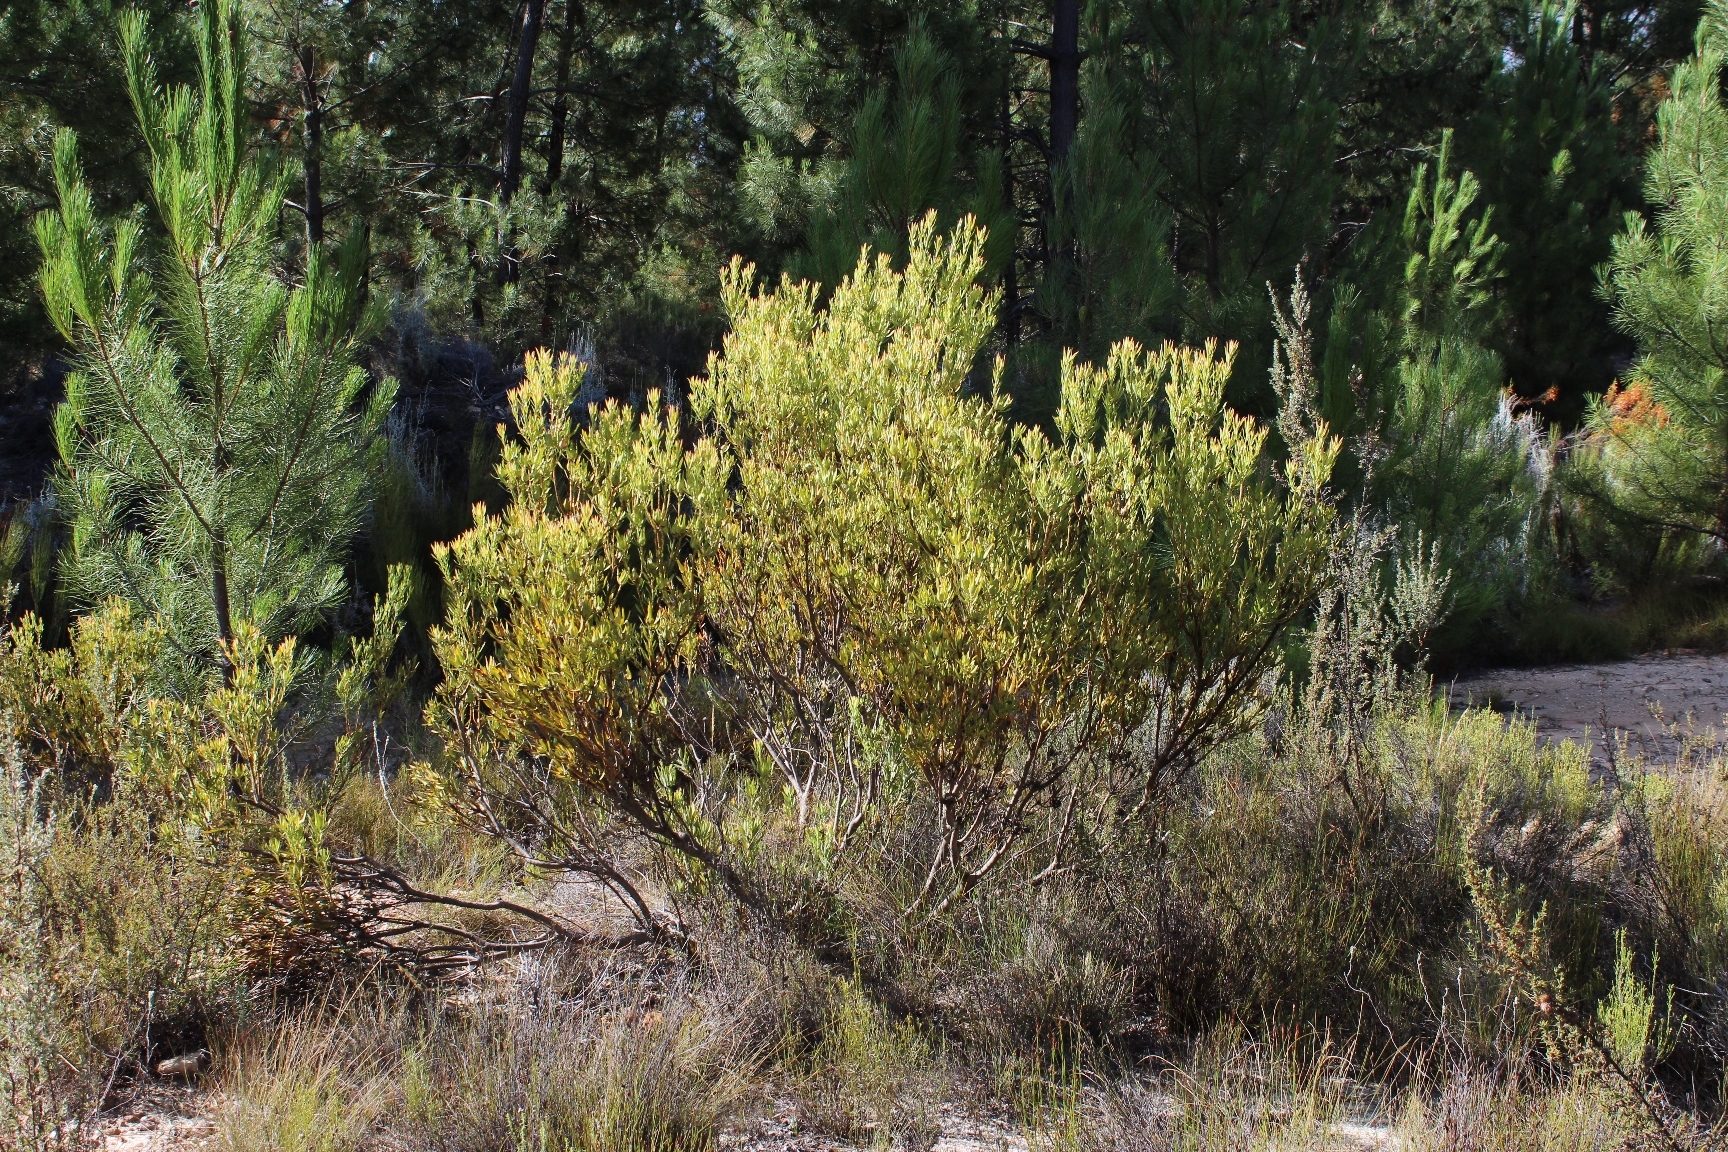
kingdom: Plantae
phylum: Tracheophyta
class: Magnoliopsida
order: Proteales
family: Proteaceae
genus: Leucadendron
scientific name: Leucadendron salignum
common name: Common sunshine conebush
